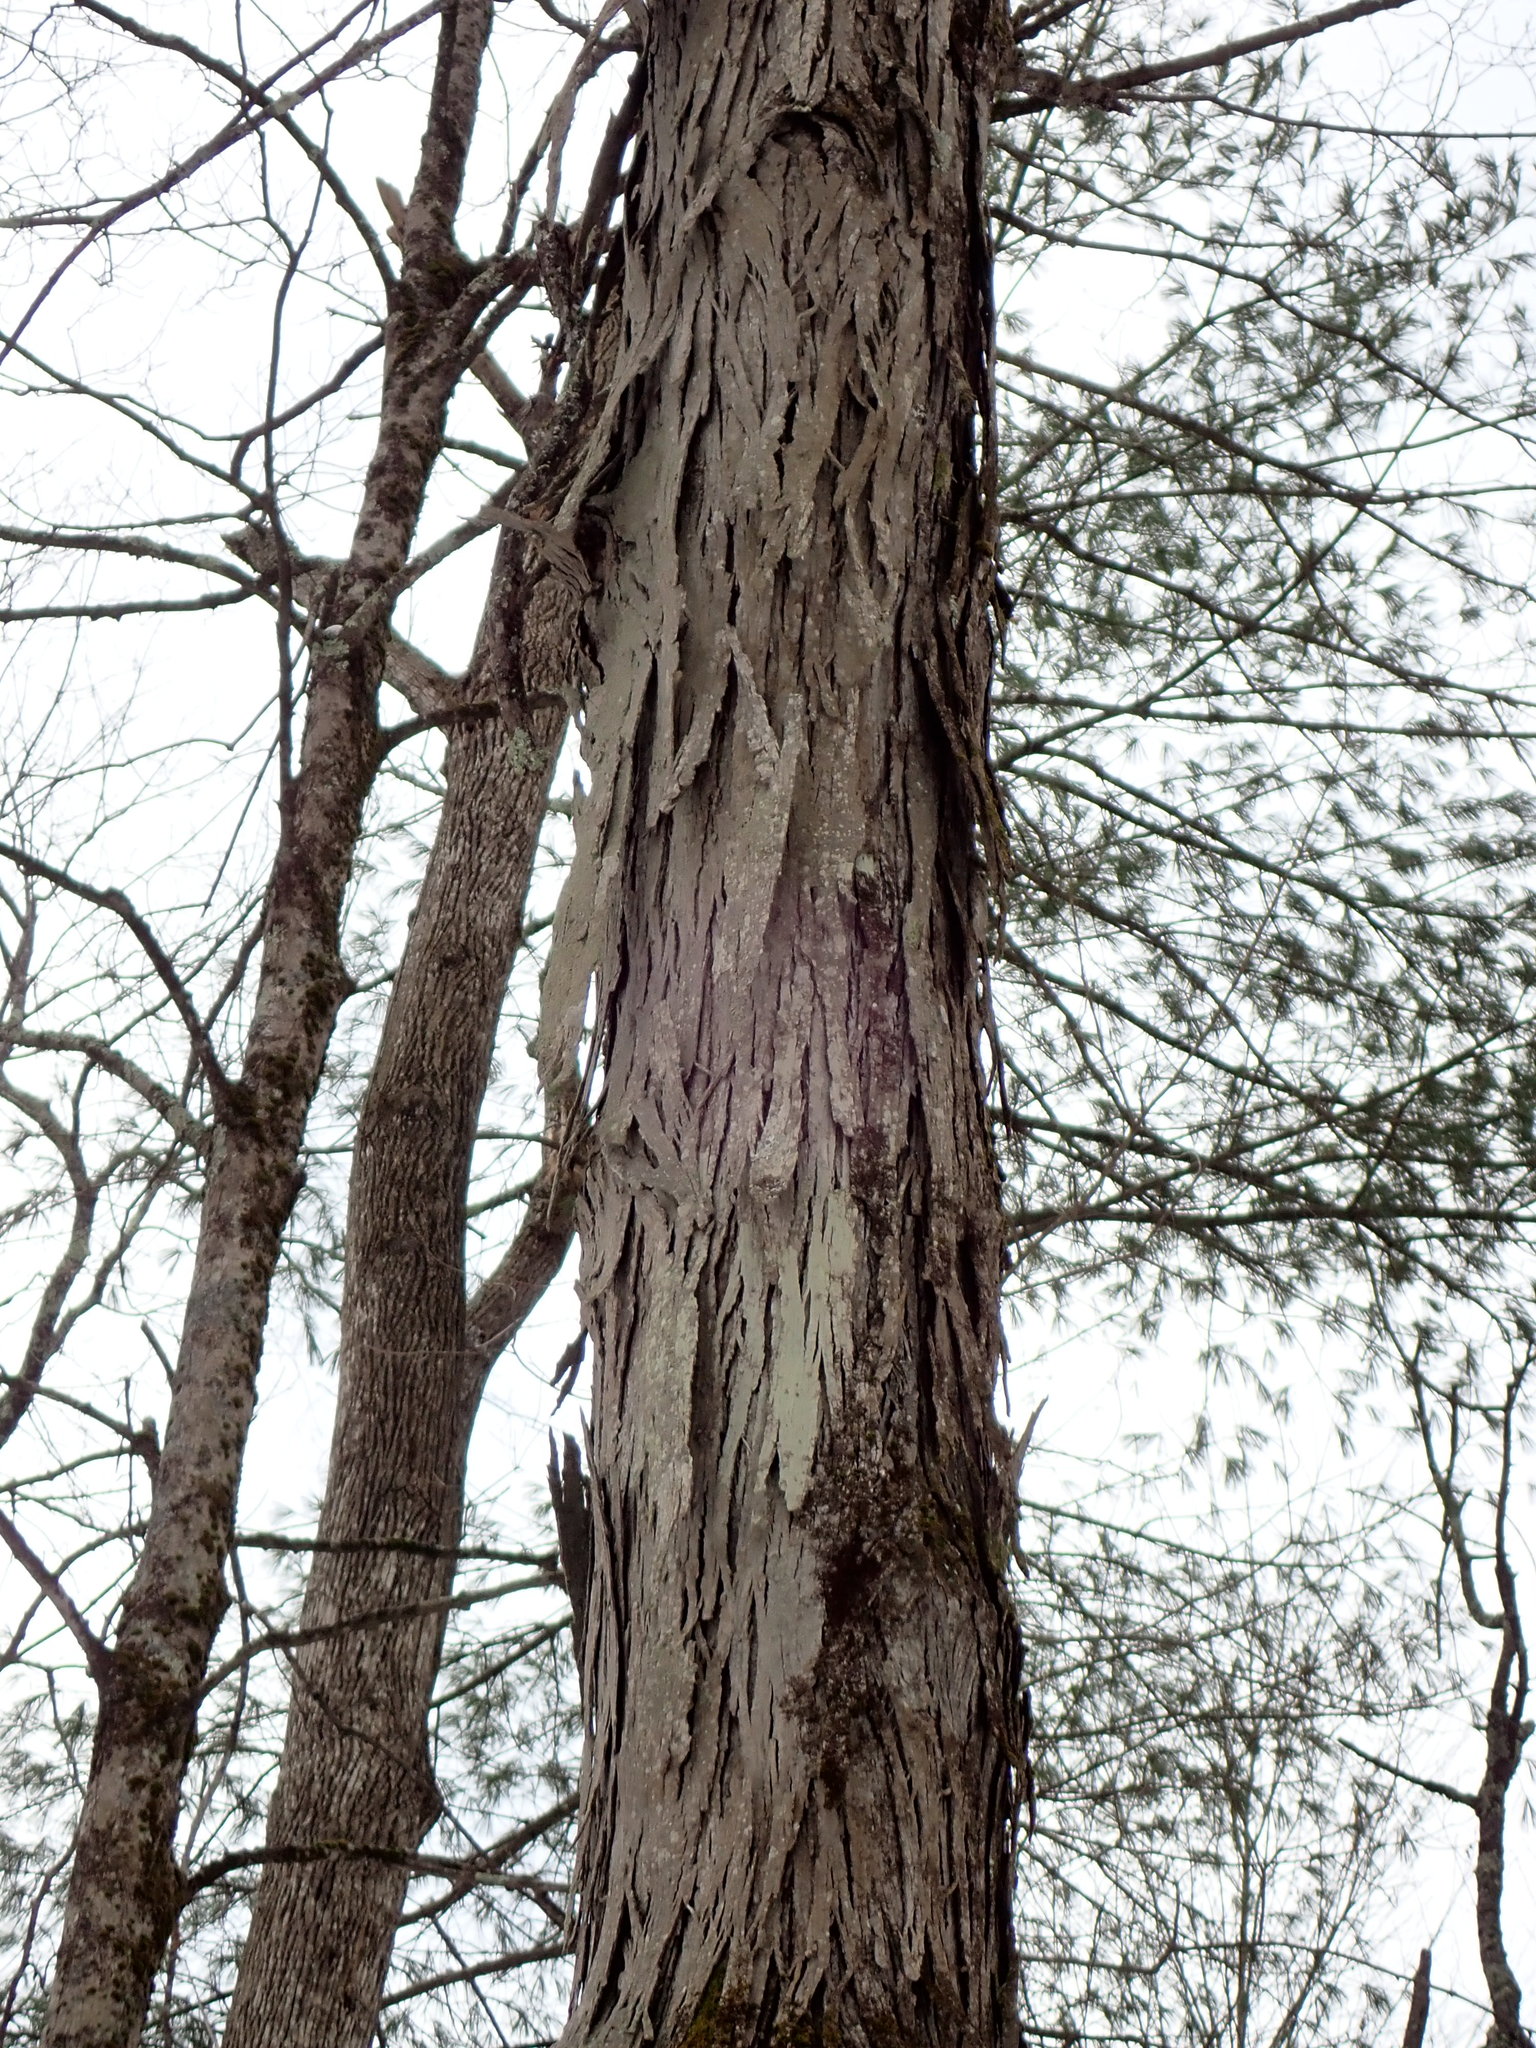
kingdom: Plantae
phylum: Tracheophyta
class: Magnoliopsida
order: Fagales
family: Juglandaceae
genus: Carya
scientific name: Carya ovata
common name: Shagbark hickory
